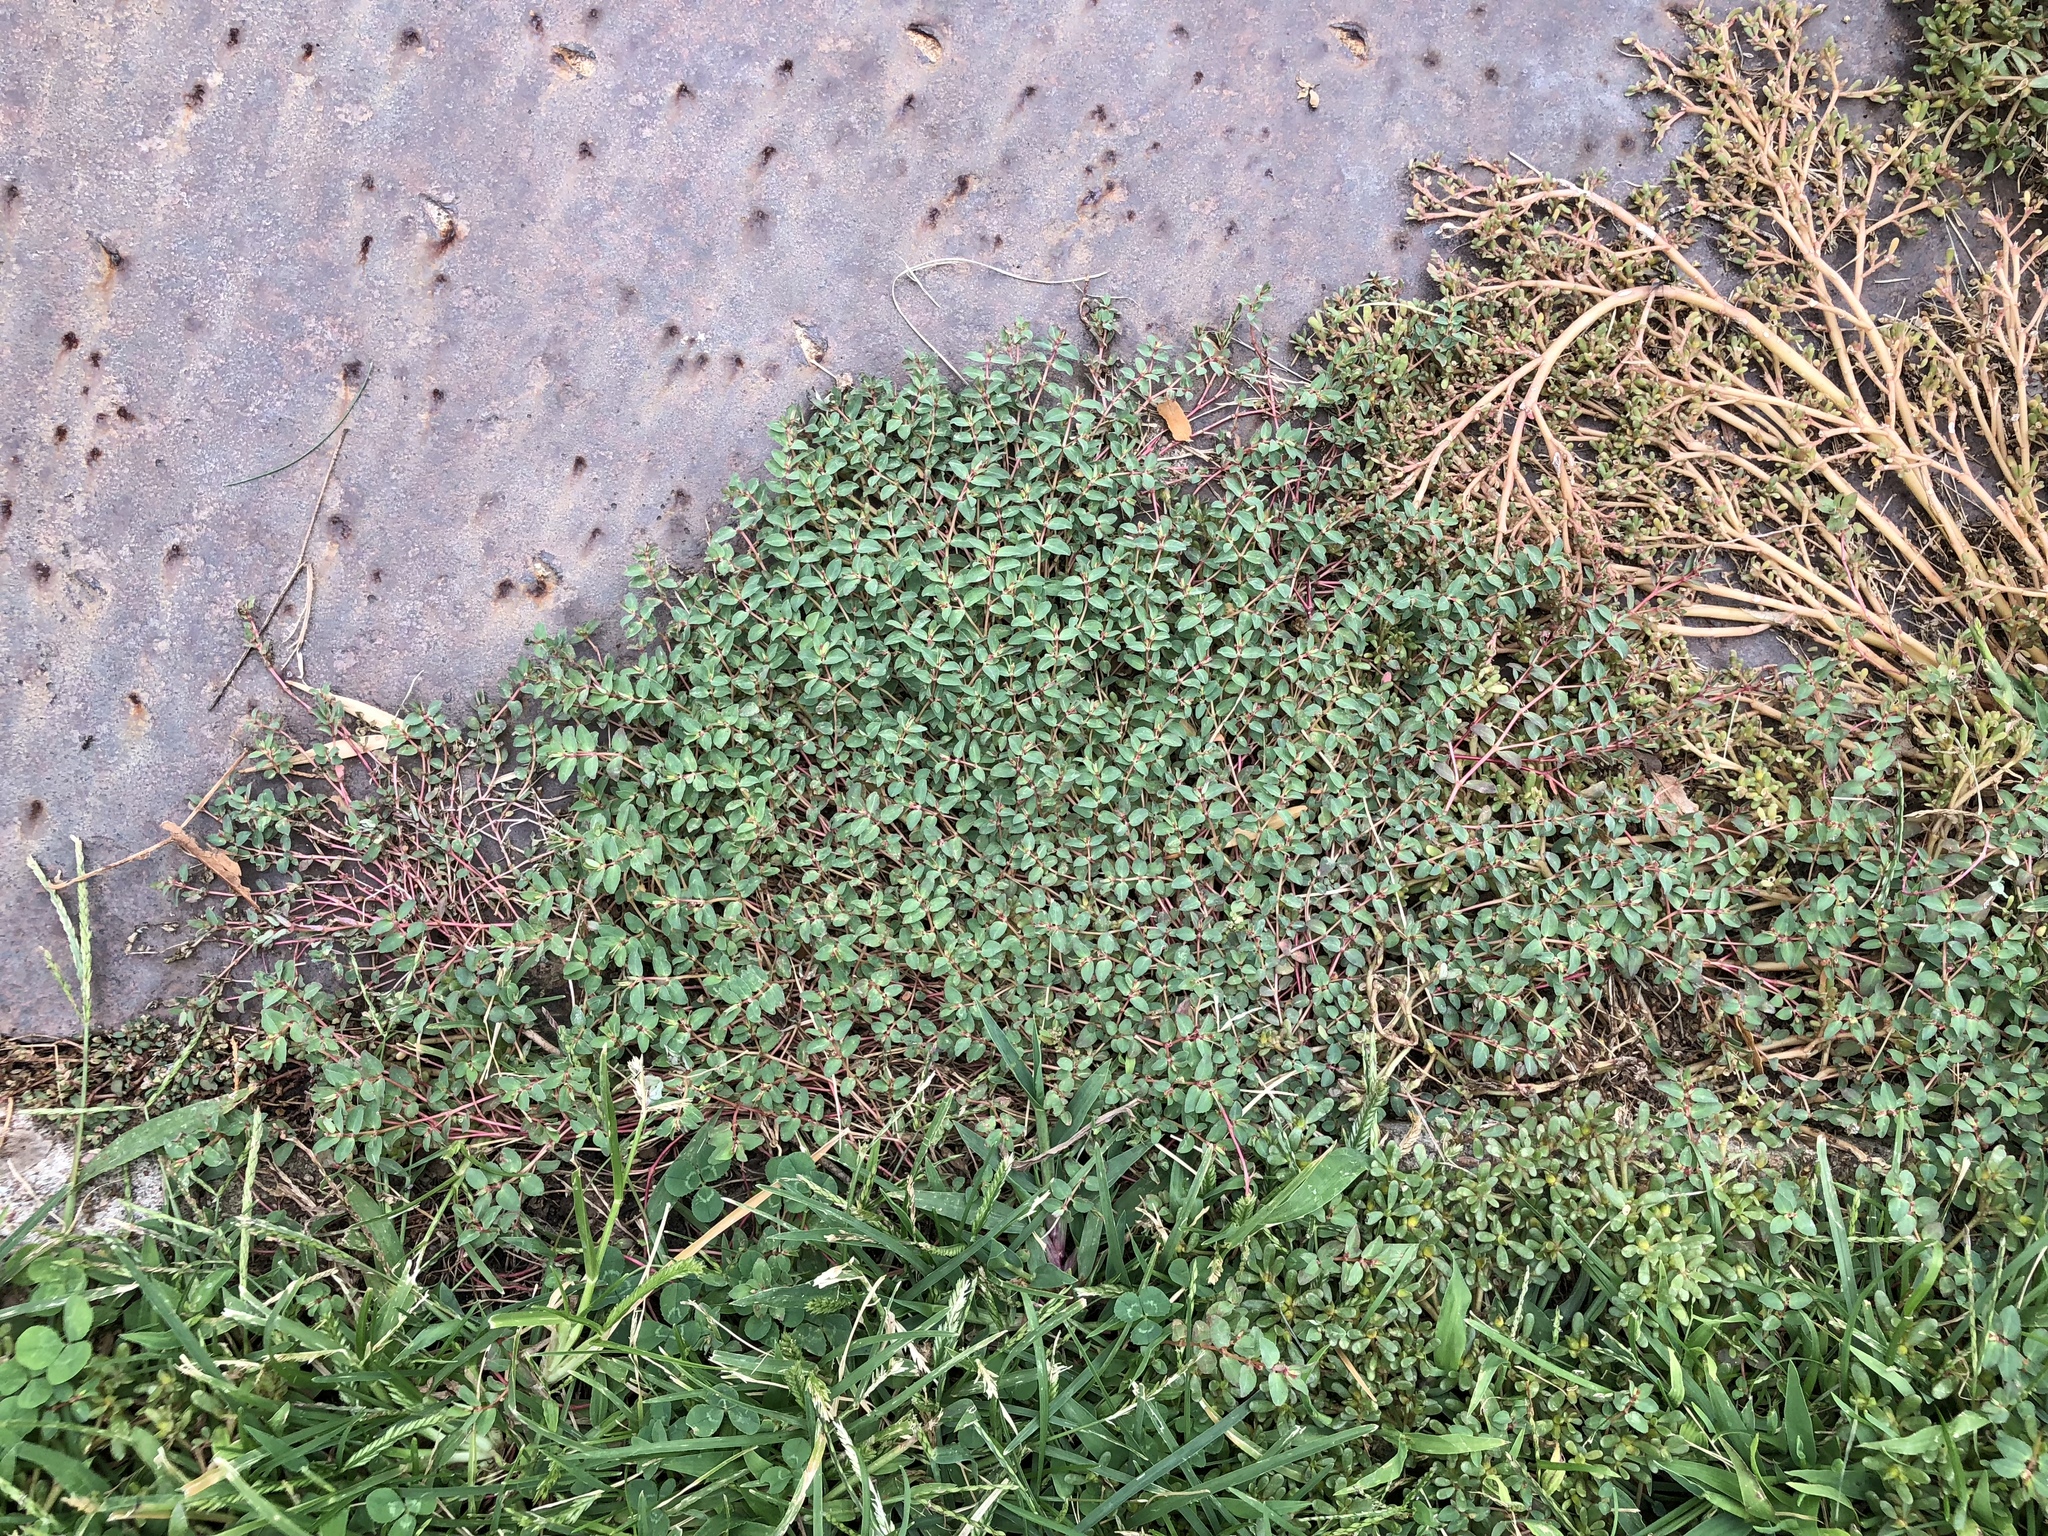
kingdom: Plantae
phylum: Tracheophyta
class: Magnoliopsida
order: Malpighiales
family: Euphorbiaceae
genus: Euphorbia
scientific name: Euphorbia vermiculata
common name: Hairy spurge
